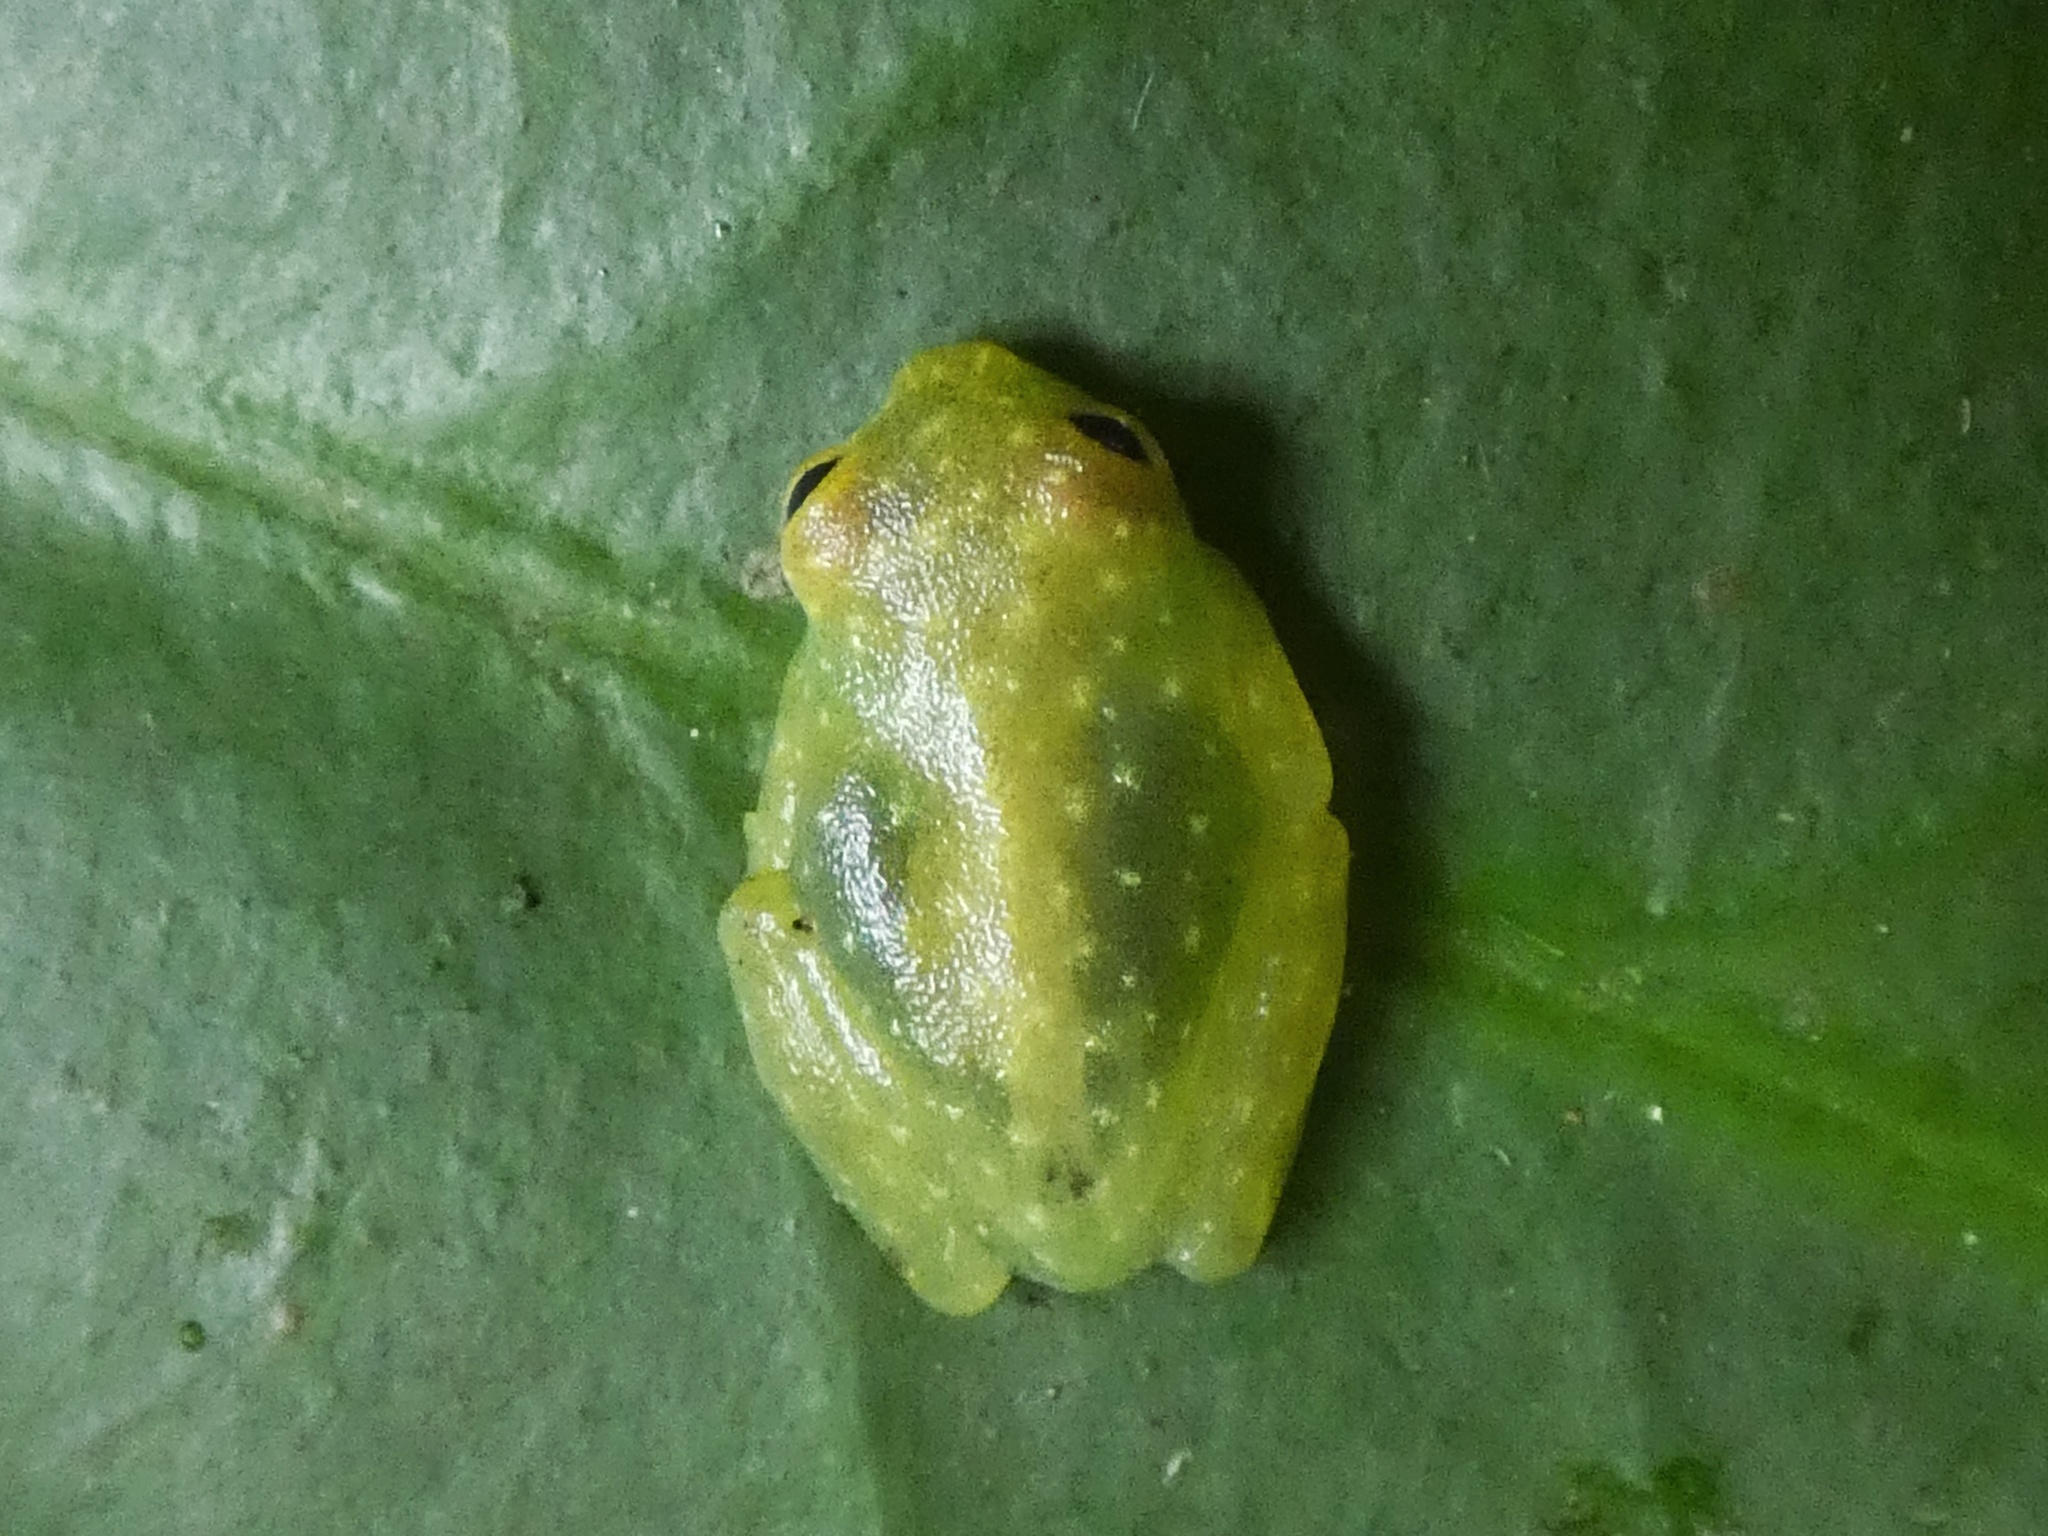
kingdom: Animalia
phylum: Chordata
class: Amphibia
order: Anura
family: Centrolenidae
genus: Hyalinobatrachium
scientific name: Hyalinobatrachium tatayoi
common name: Tatayo’s glass frog
